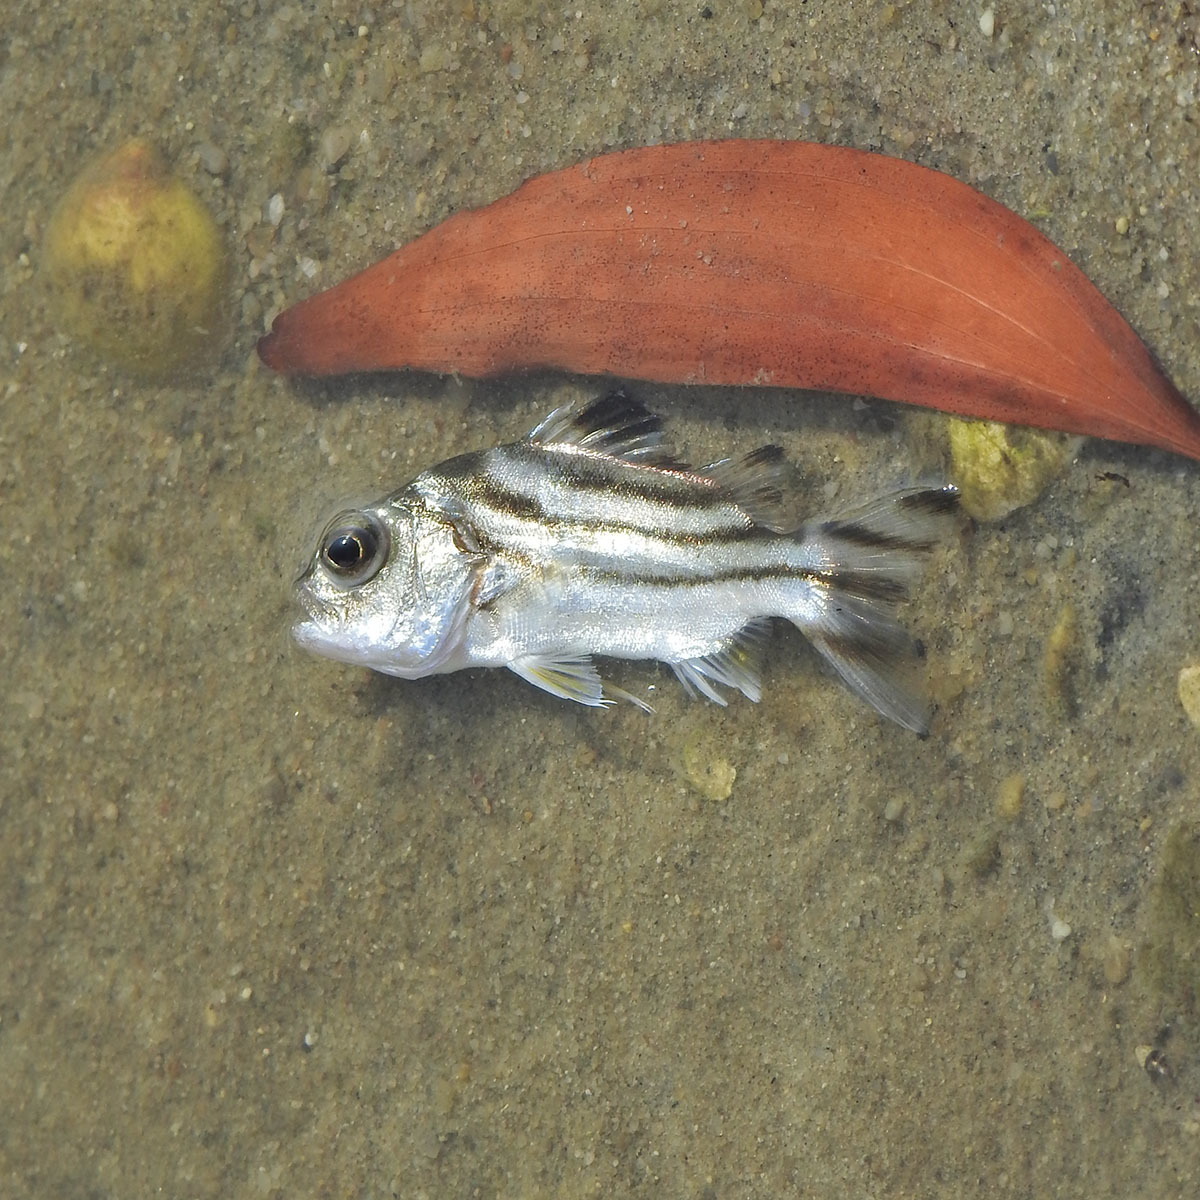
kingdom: Animalia
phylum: Chordata
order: Perciformes
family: Terapontidae
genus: Terapon
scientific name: Terapon jarbua
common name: Jarbua terapon
